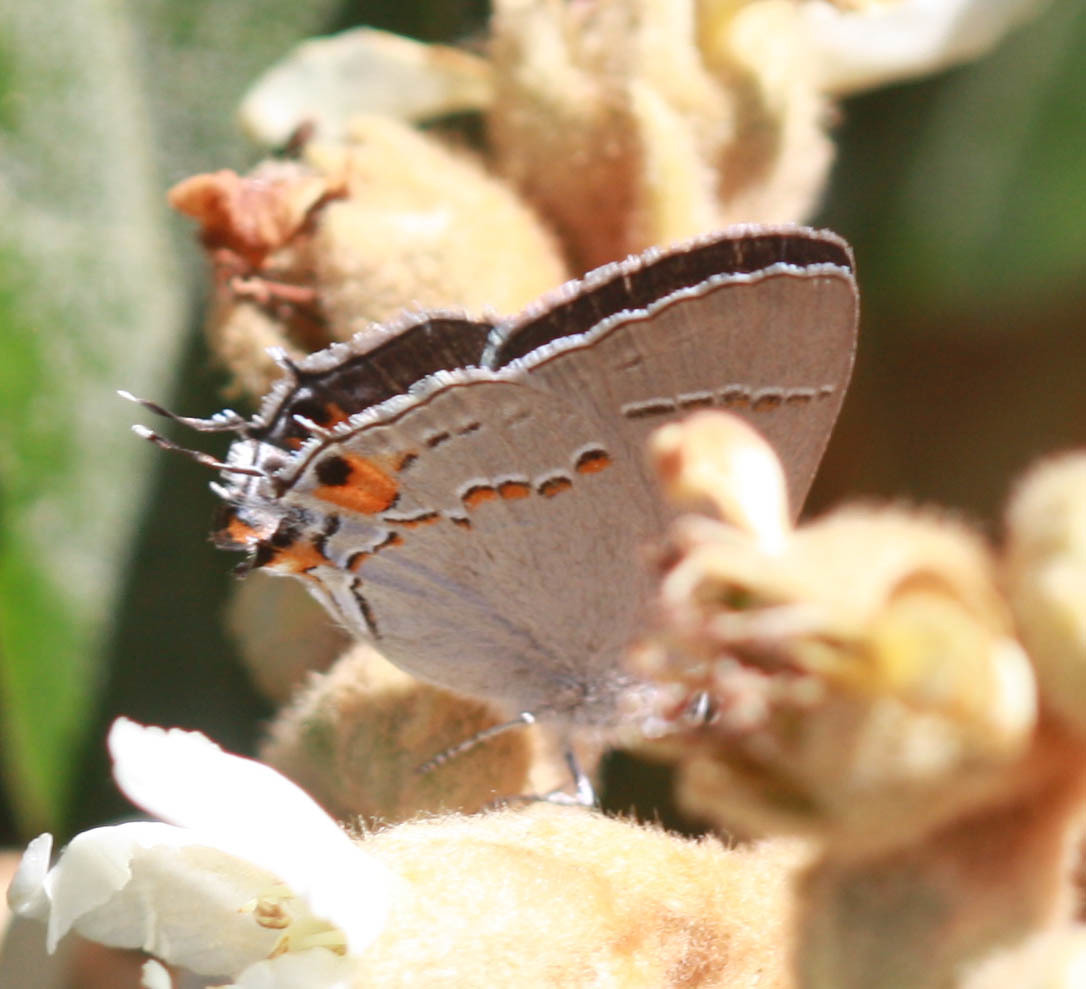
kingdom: Animalia
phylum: Arthropoda
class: Insecta
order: Lepidoptera
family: Lycaenidae
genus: Strymon
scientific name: Strymon melinus
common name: Gray hairstreak
